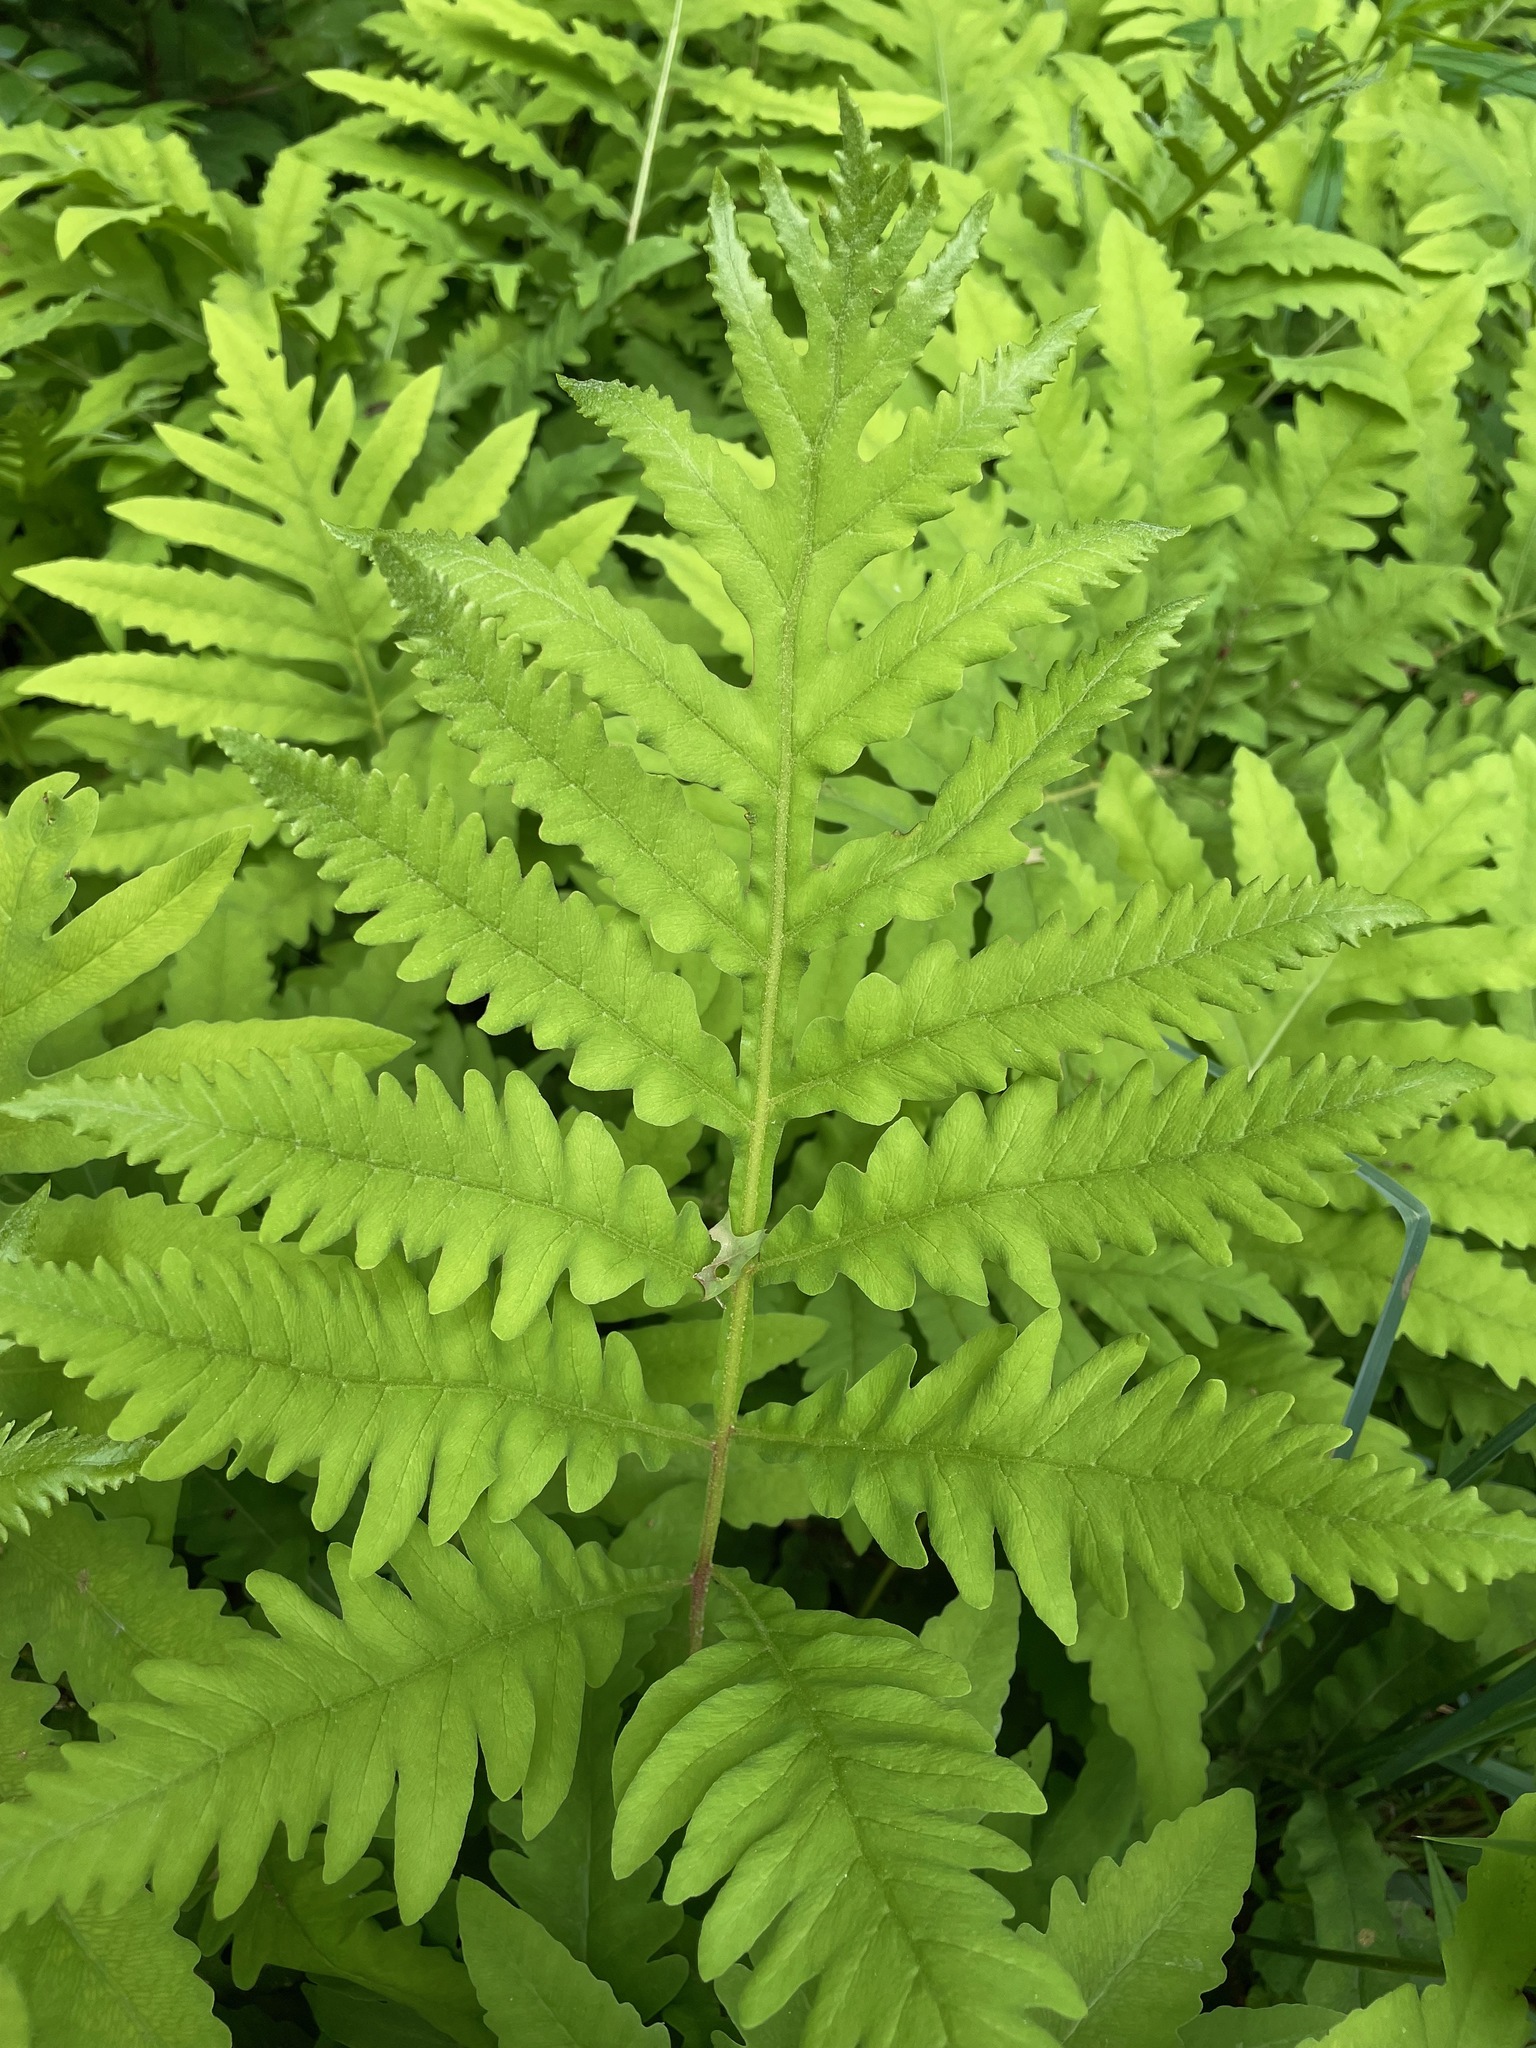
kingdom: Plantae
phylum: Tracheophyta
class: Polypodiopsida
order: Polypodiales
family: Onocleaceae
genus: Onoclea
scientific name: Onoclea sensibilis
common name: Sensitive fern
